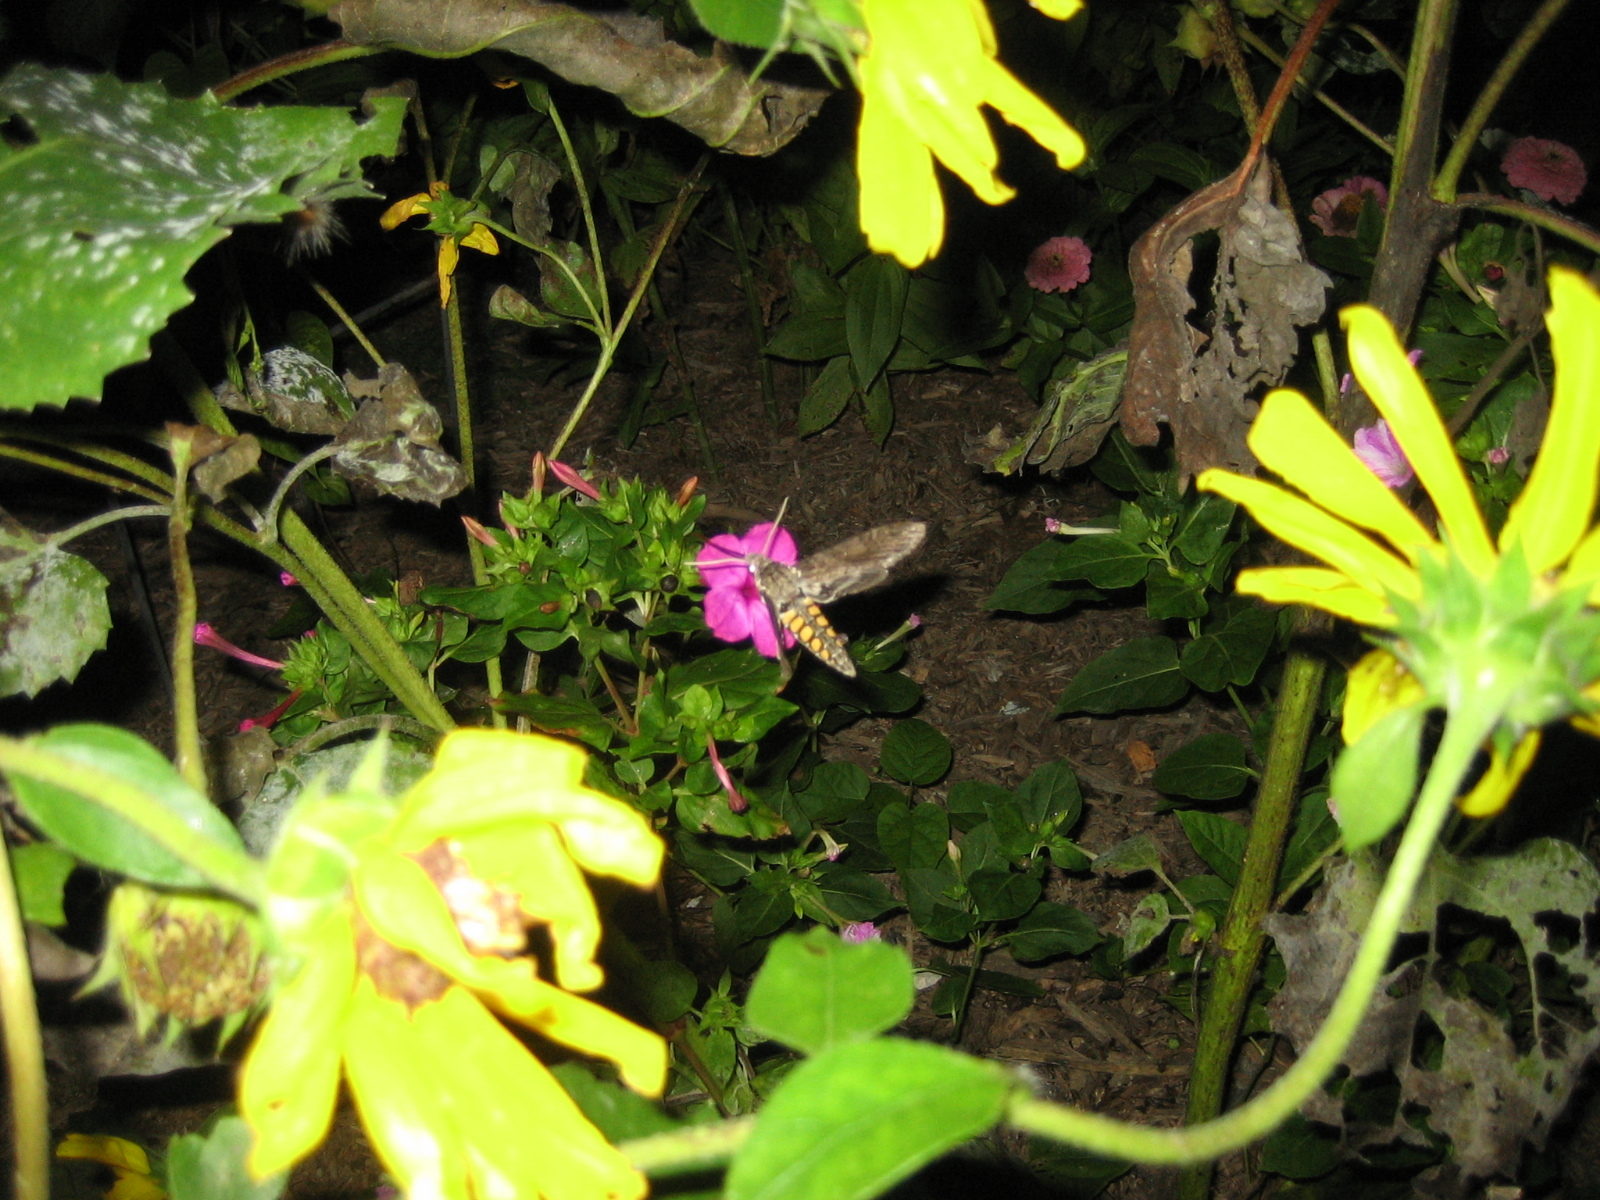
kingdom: Animalia
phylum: Arthropoda
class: Insecta
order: Lepidoptera
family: Sphingidae
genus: Manduca
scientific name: Manduca sexta
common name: Carolina sphinx
